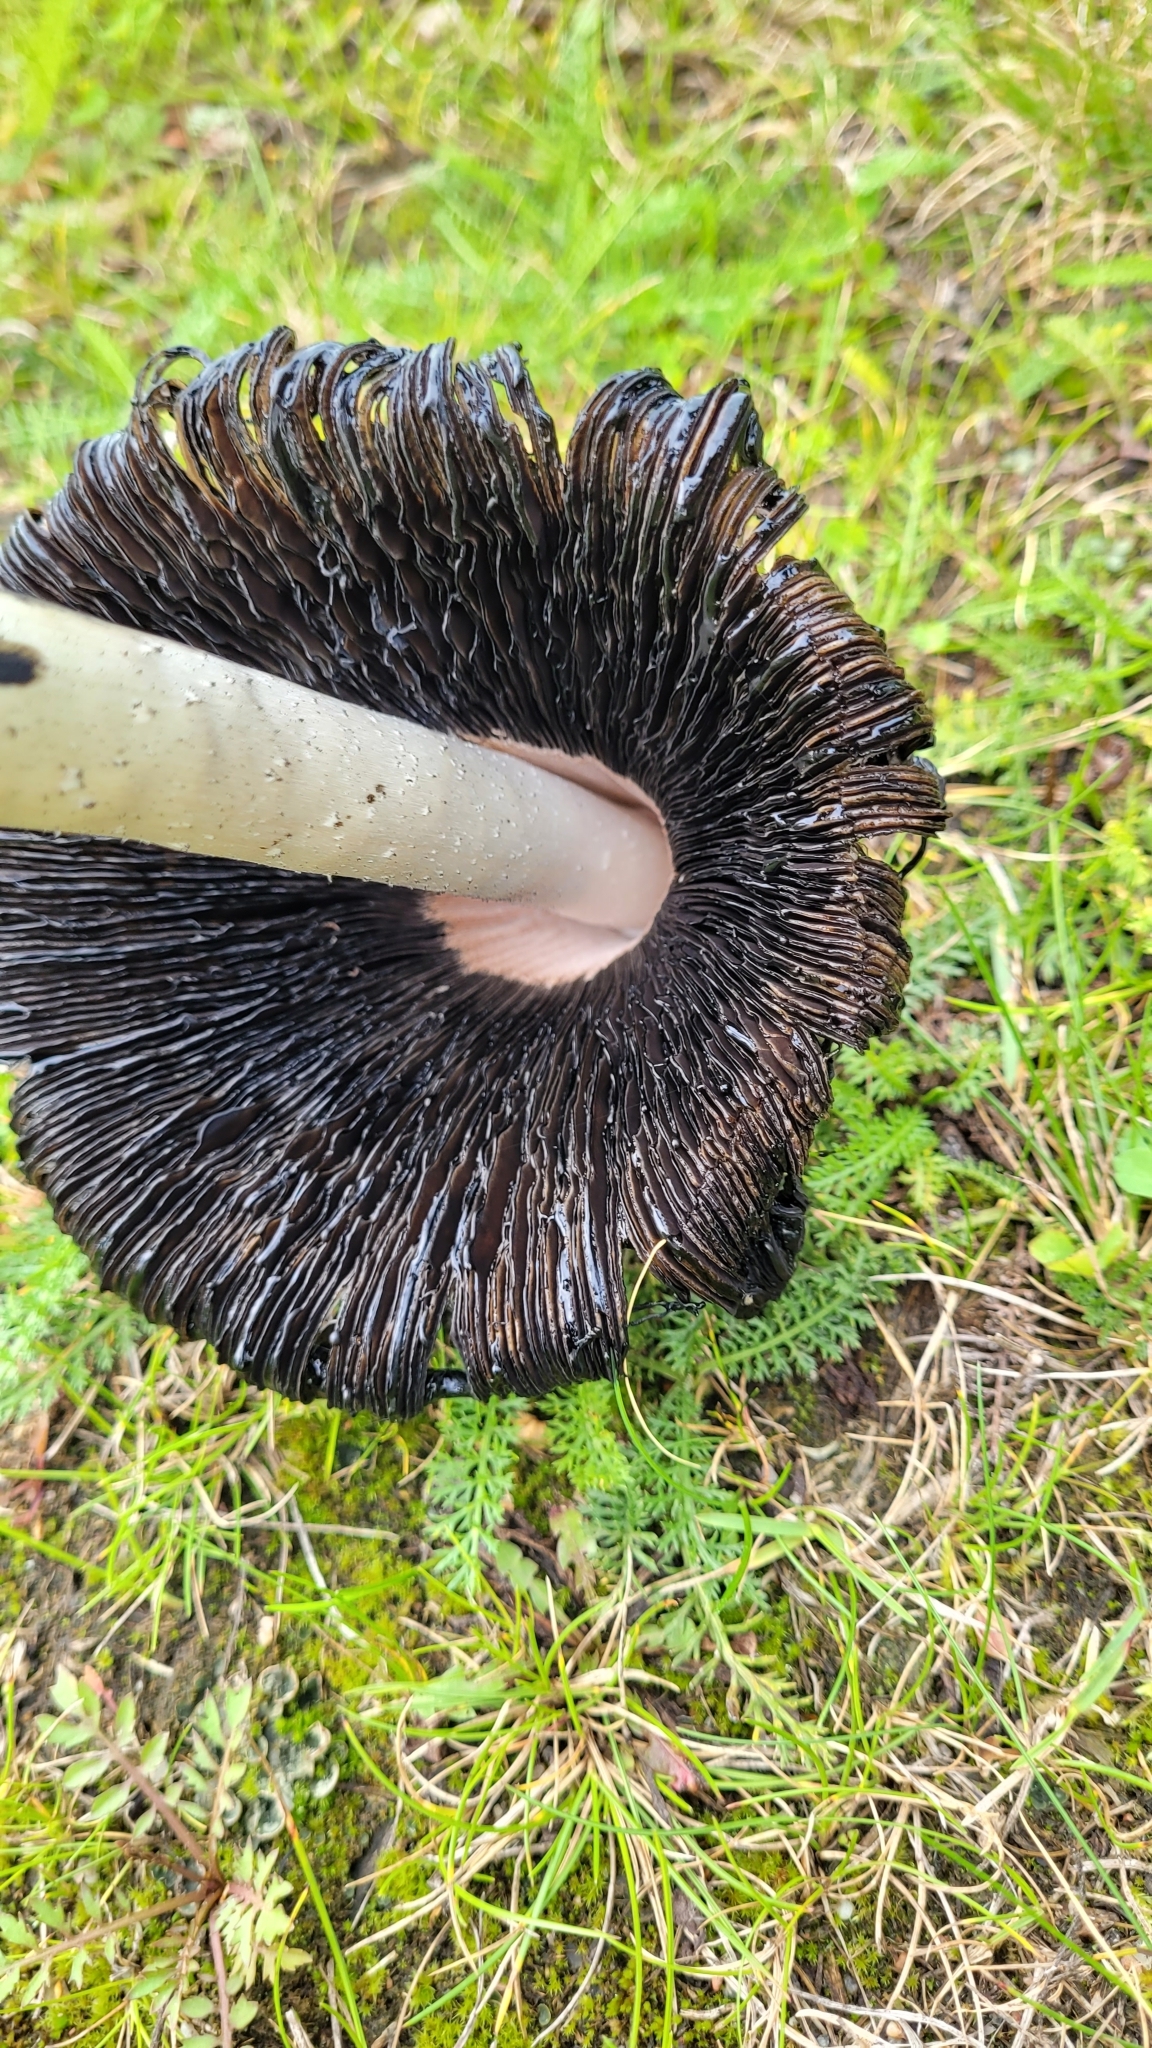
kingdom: Fungi
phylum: Basidiomycota
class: Agaricomycetes
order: Agaricales
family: Agaricaceae
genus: Coprinus
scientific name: Coprinus comatus
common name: Lawyer's wig
